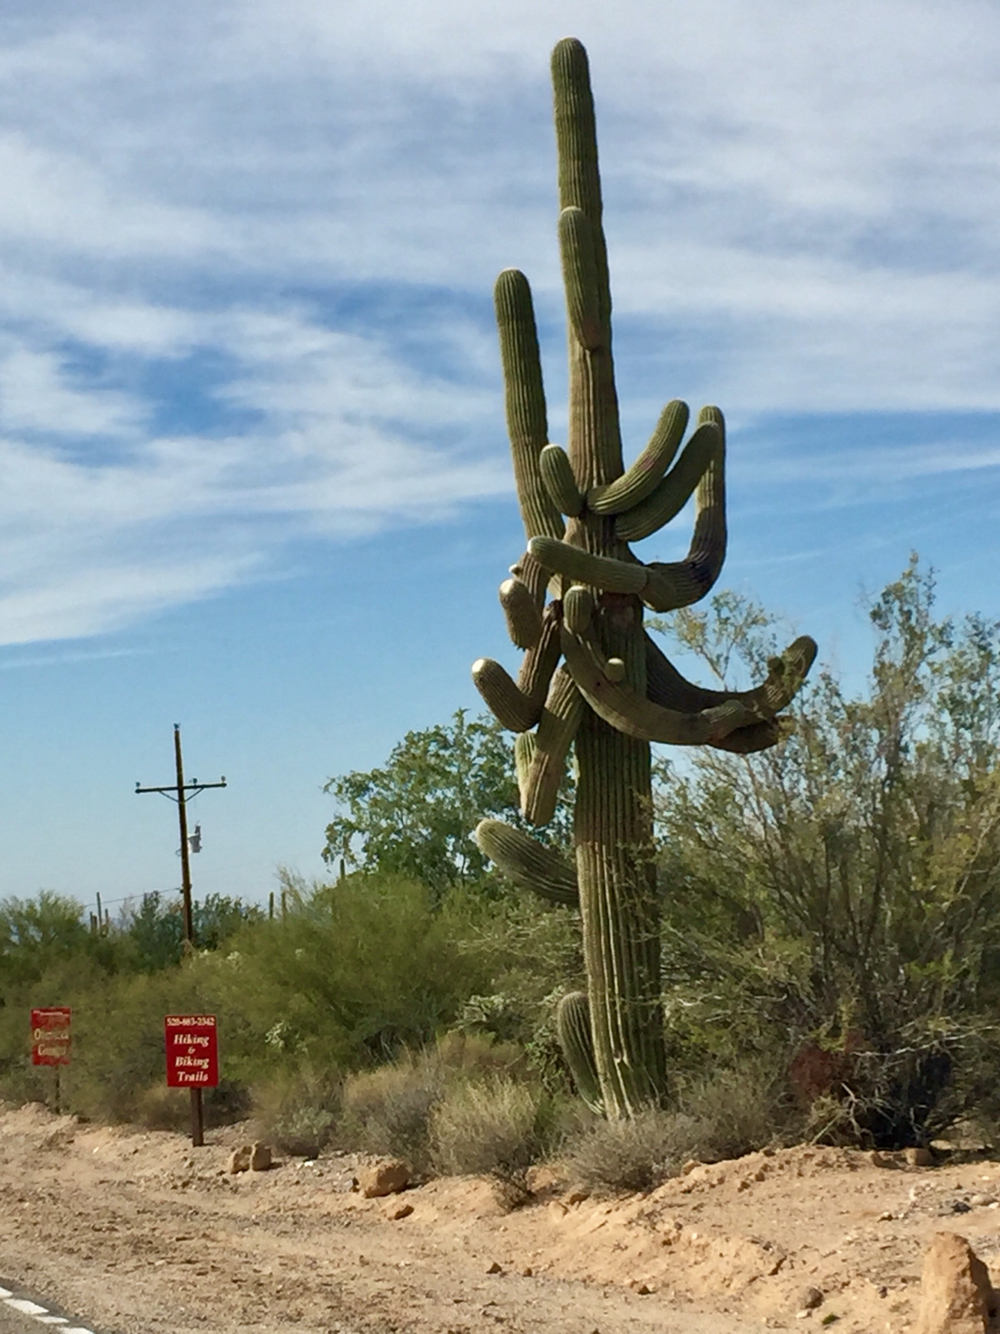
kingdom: Plantae
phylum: Tracheophyta
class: Magnoliopsida
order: Caryophyllales
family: Cactaceae
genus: Carnegiea
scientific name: Carnegiea gigantea
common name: Saguaro
